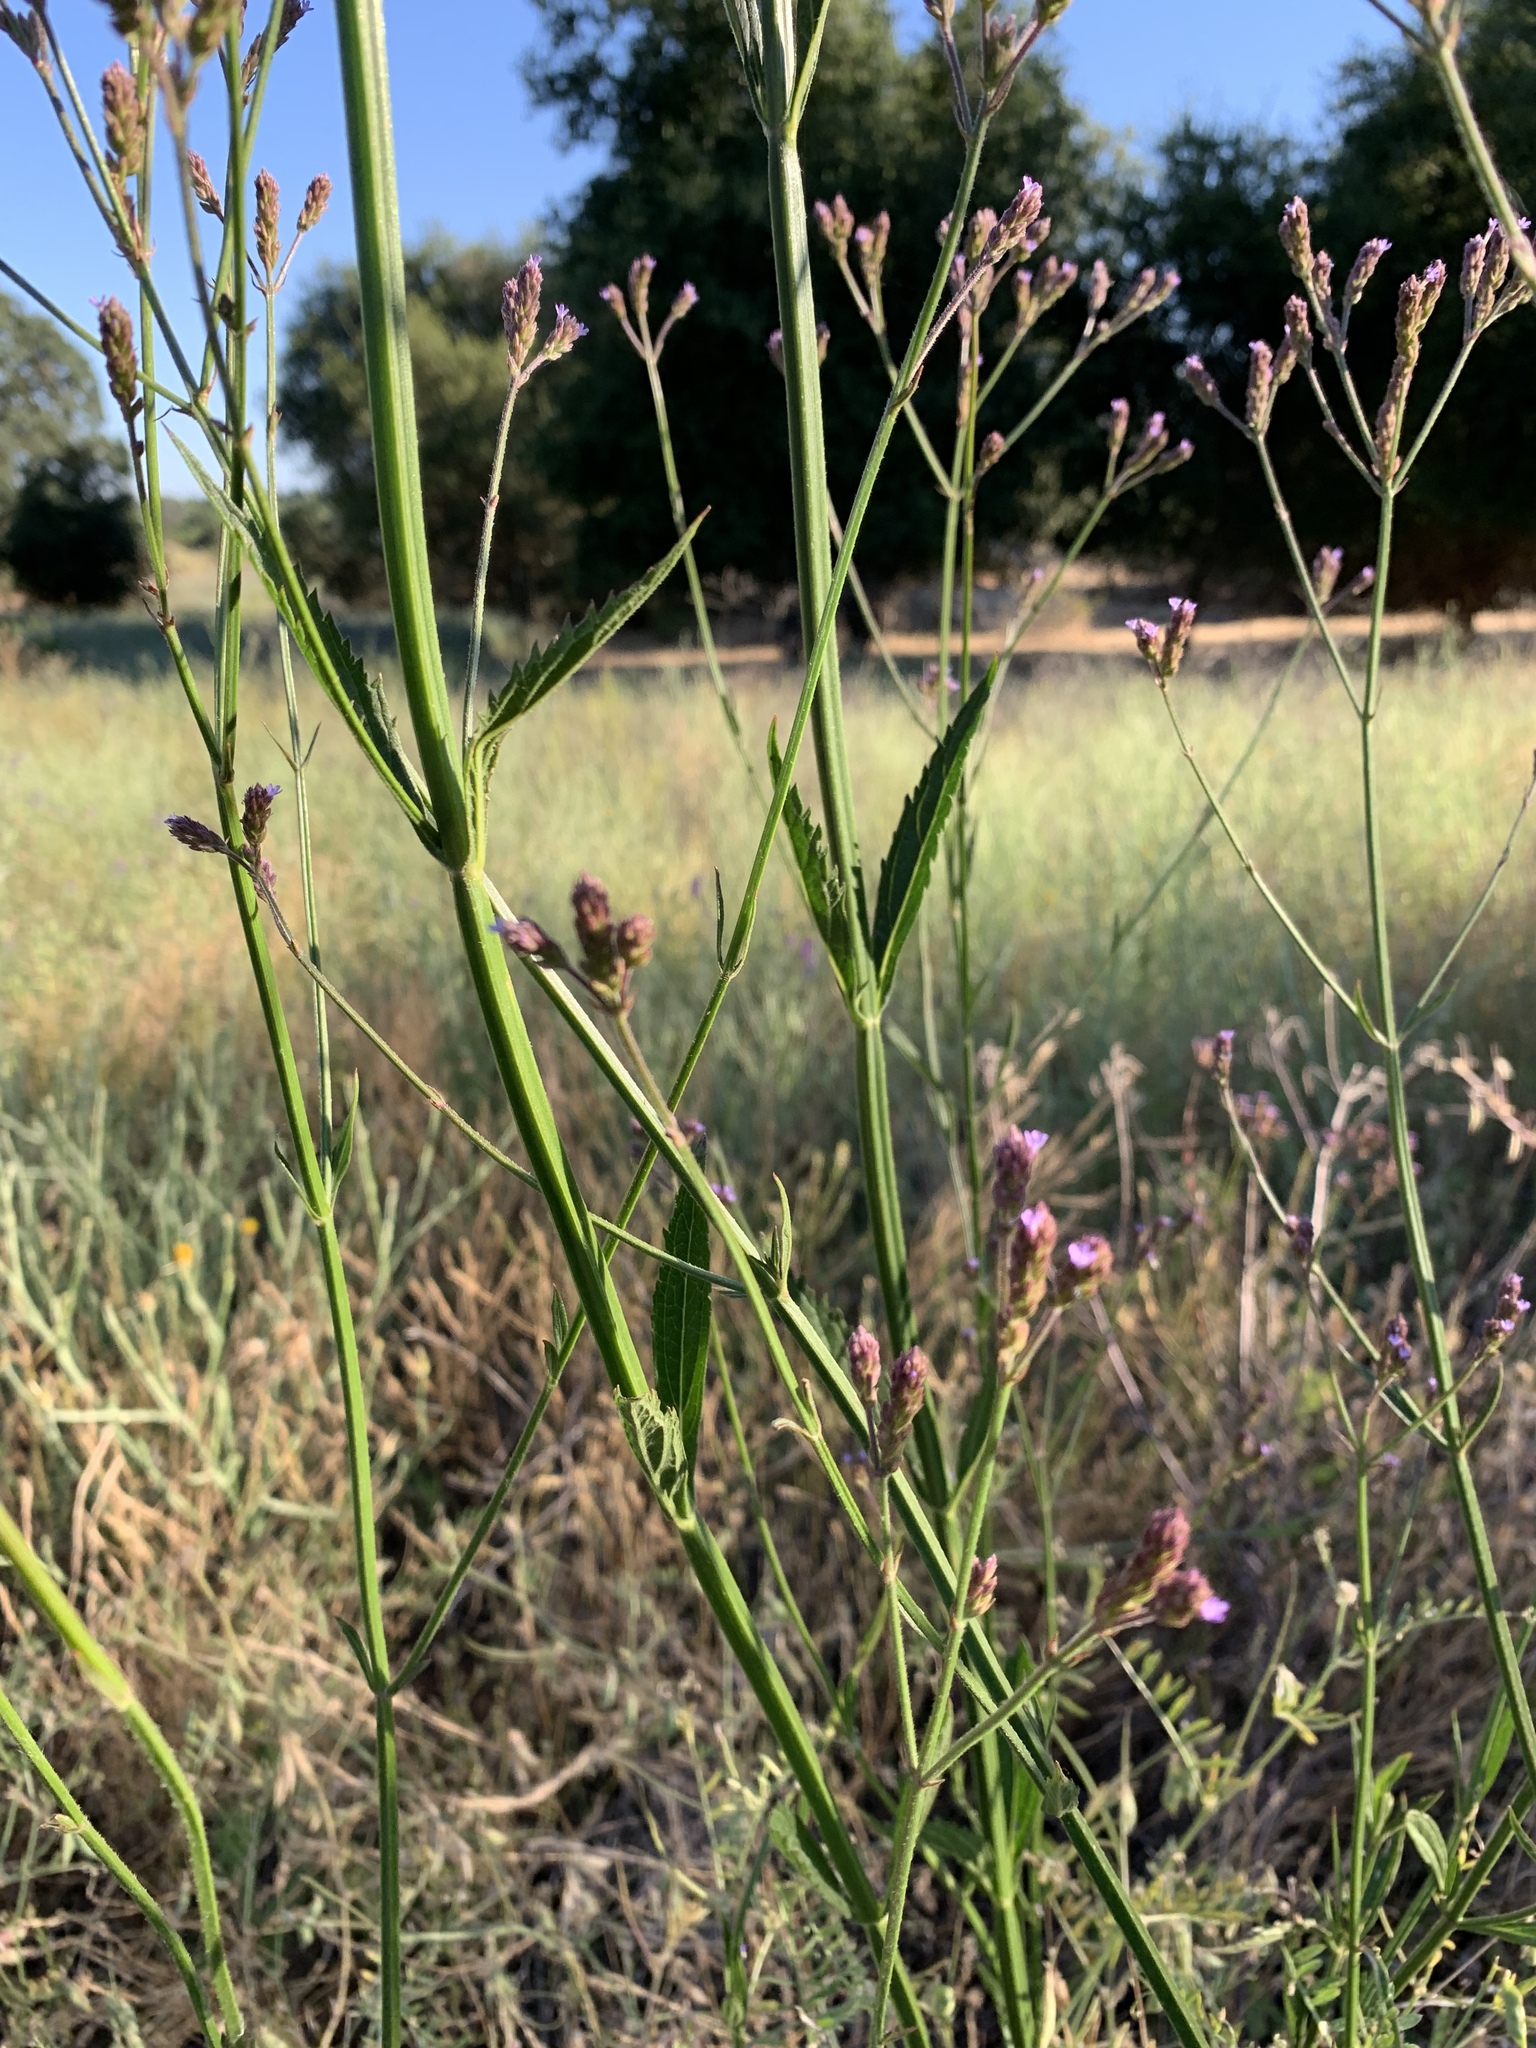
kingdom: Plantae
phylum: Tracheophyta
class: Magnoliopsida
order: Lamiales
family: Verbenaceae
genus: Verbena
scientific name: Verbena brasiliensis
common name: Brazilian vervain
